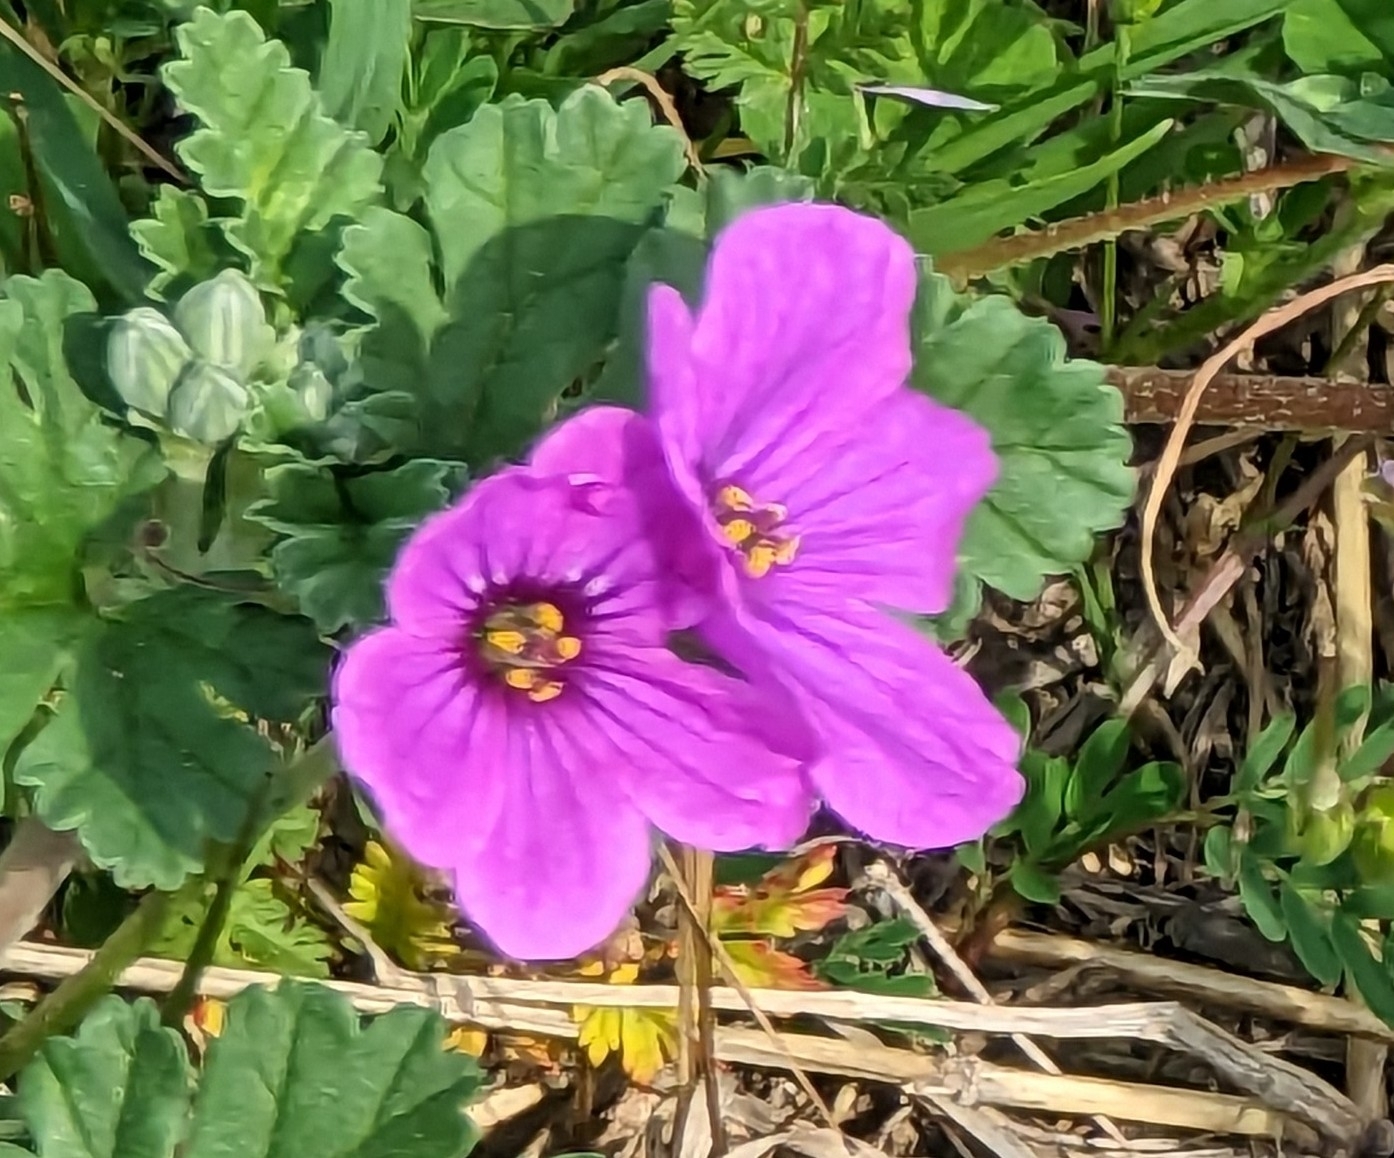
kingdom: Plantae
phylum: Tracheophyta
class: Magnoliopsida
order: Geraniales
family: Geraniaceae
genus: Erodium
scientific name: Erodium texanum
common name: Texas stork's-bill
